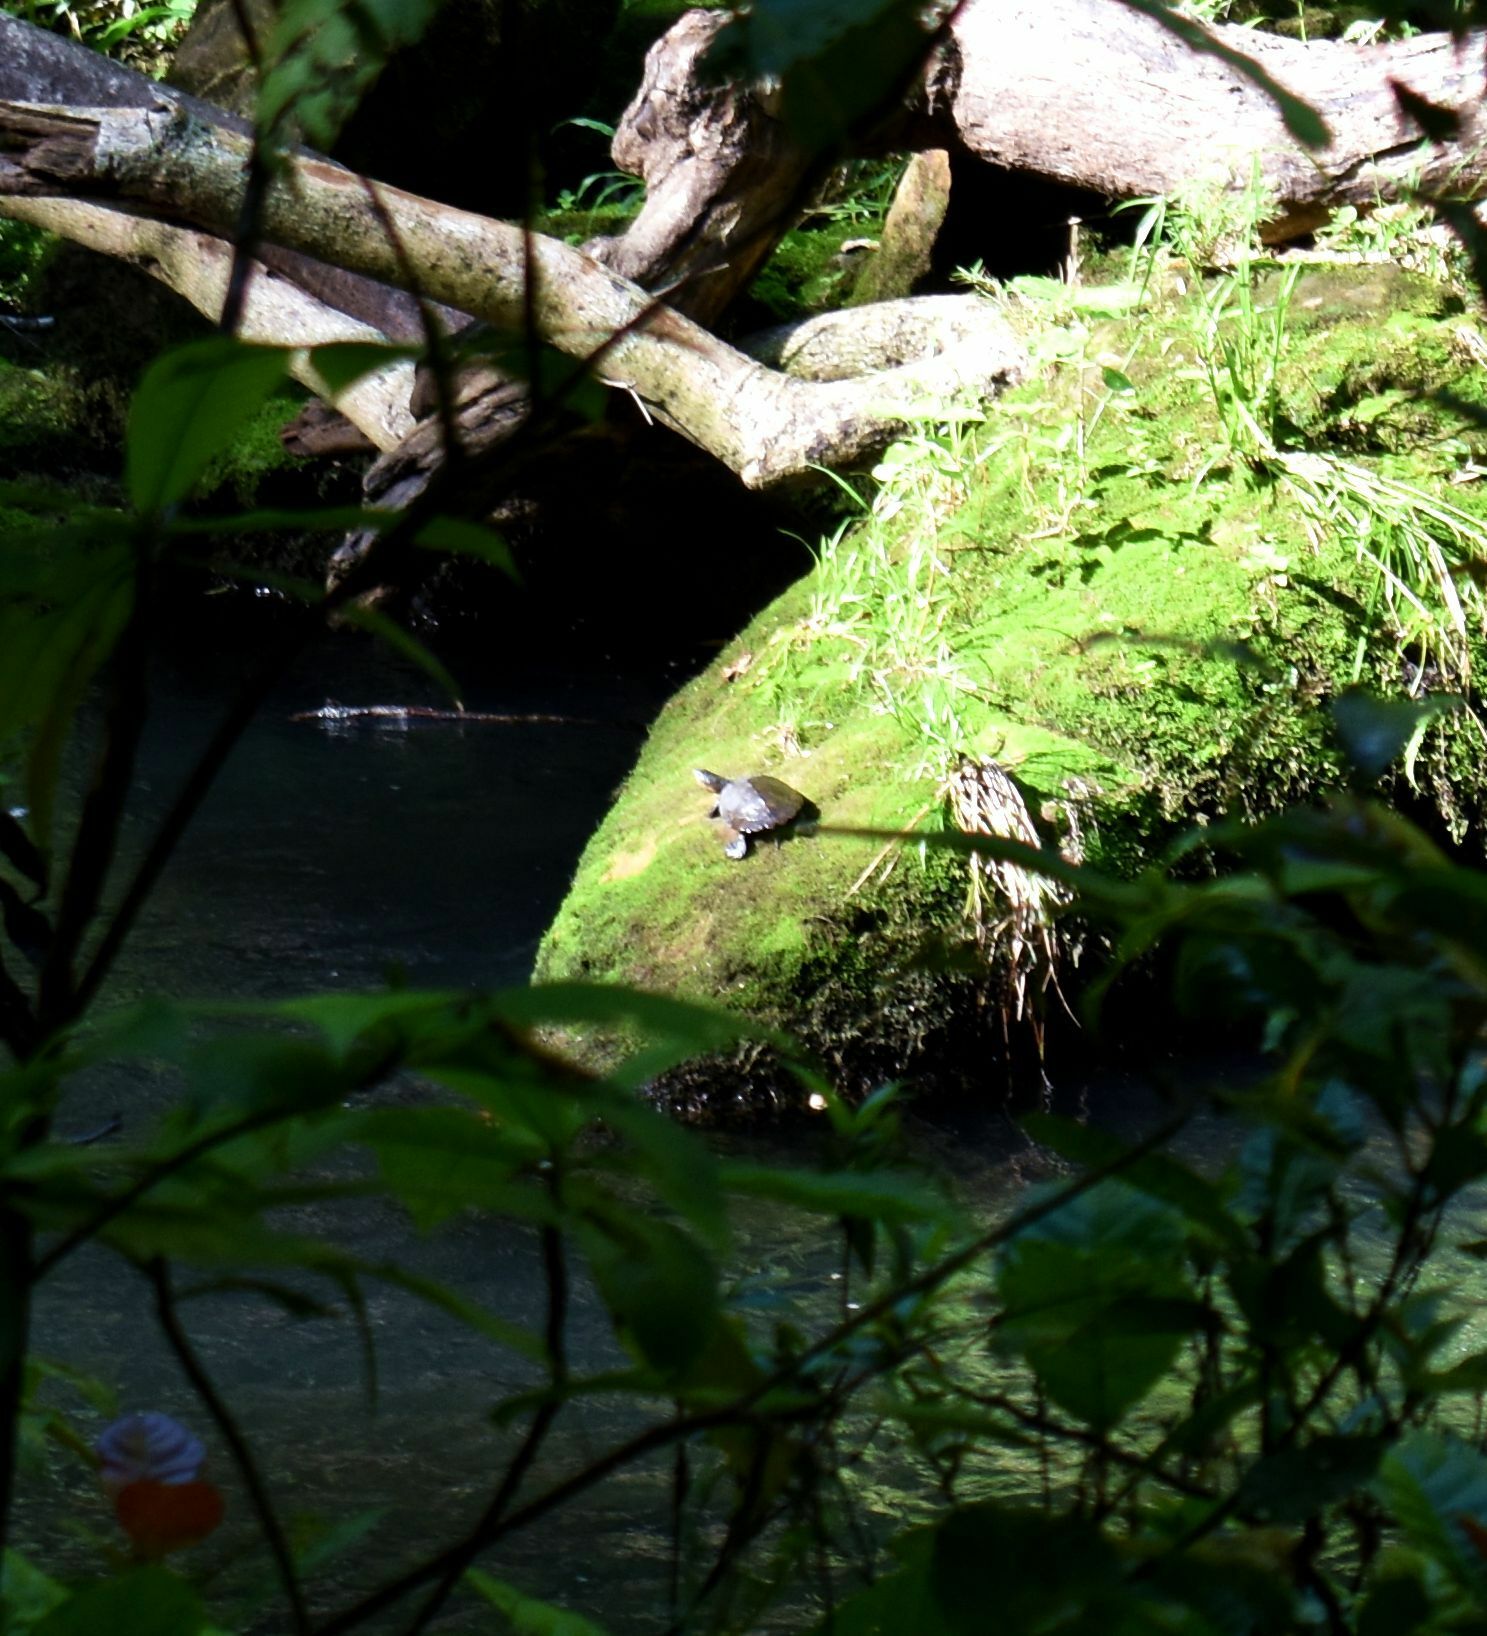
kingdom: Animalia
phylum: Chordata
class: Testudines
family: Chelidae
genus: Myuchelys
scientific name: Myuchelys latisternum
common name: Serrated snapping turtle
